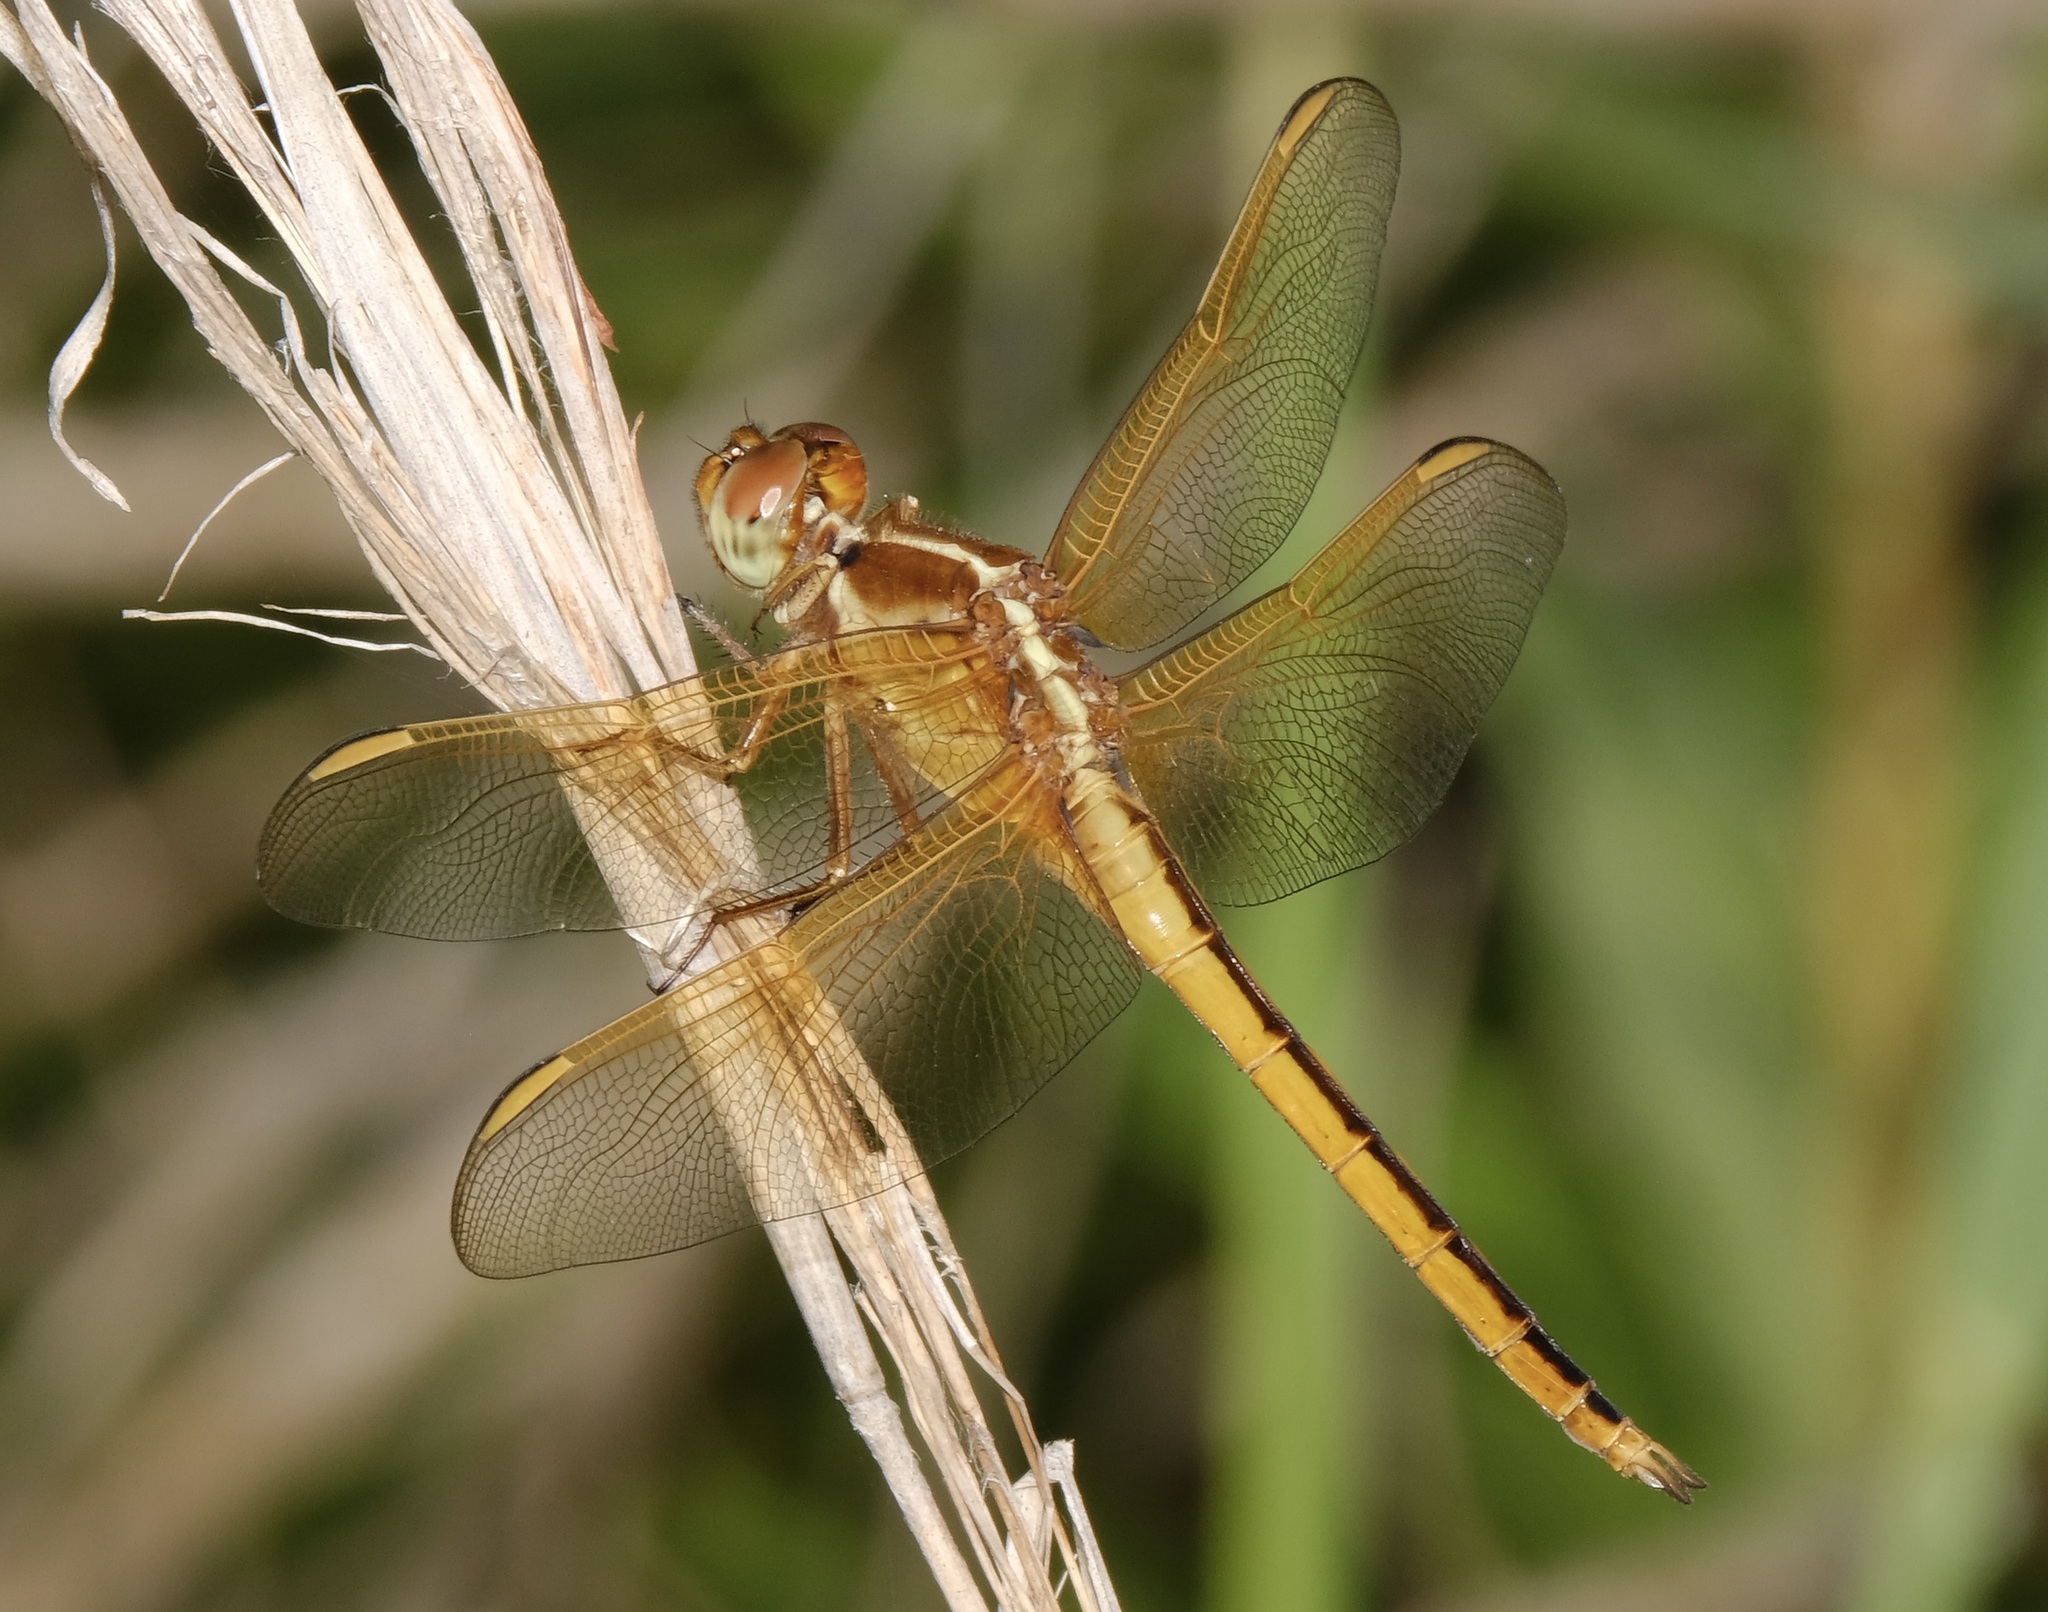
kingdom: Animalia
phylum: Arthropoda
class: Insecta
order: Odonata
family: Libellulidae
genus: Libellula
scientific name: Libellula needhami
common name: Needham's skimmer
